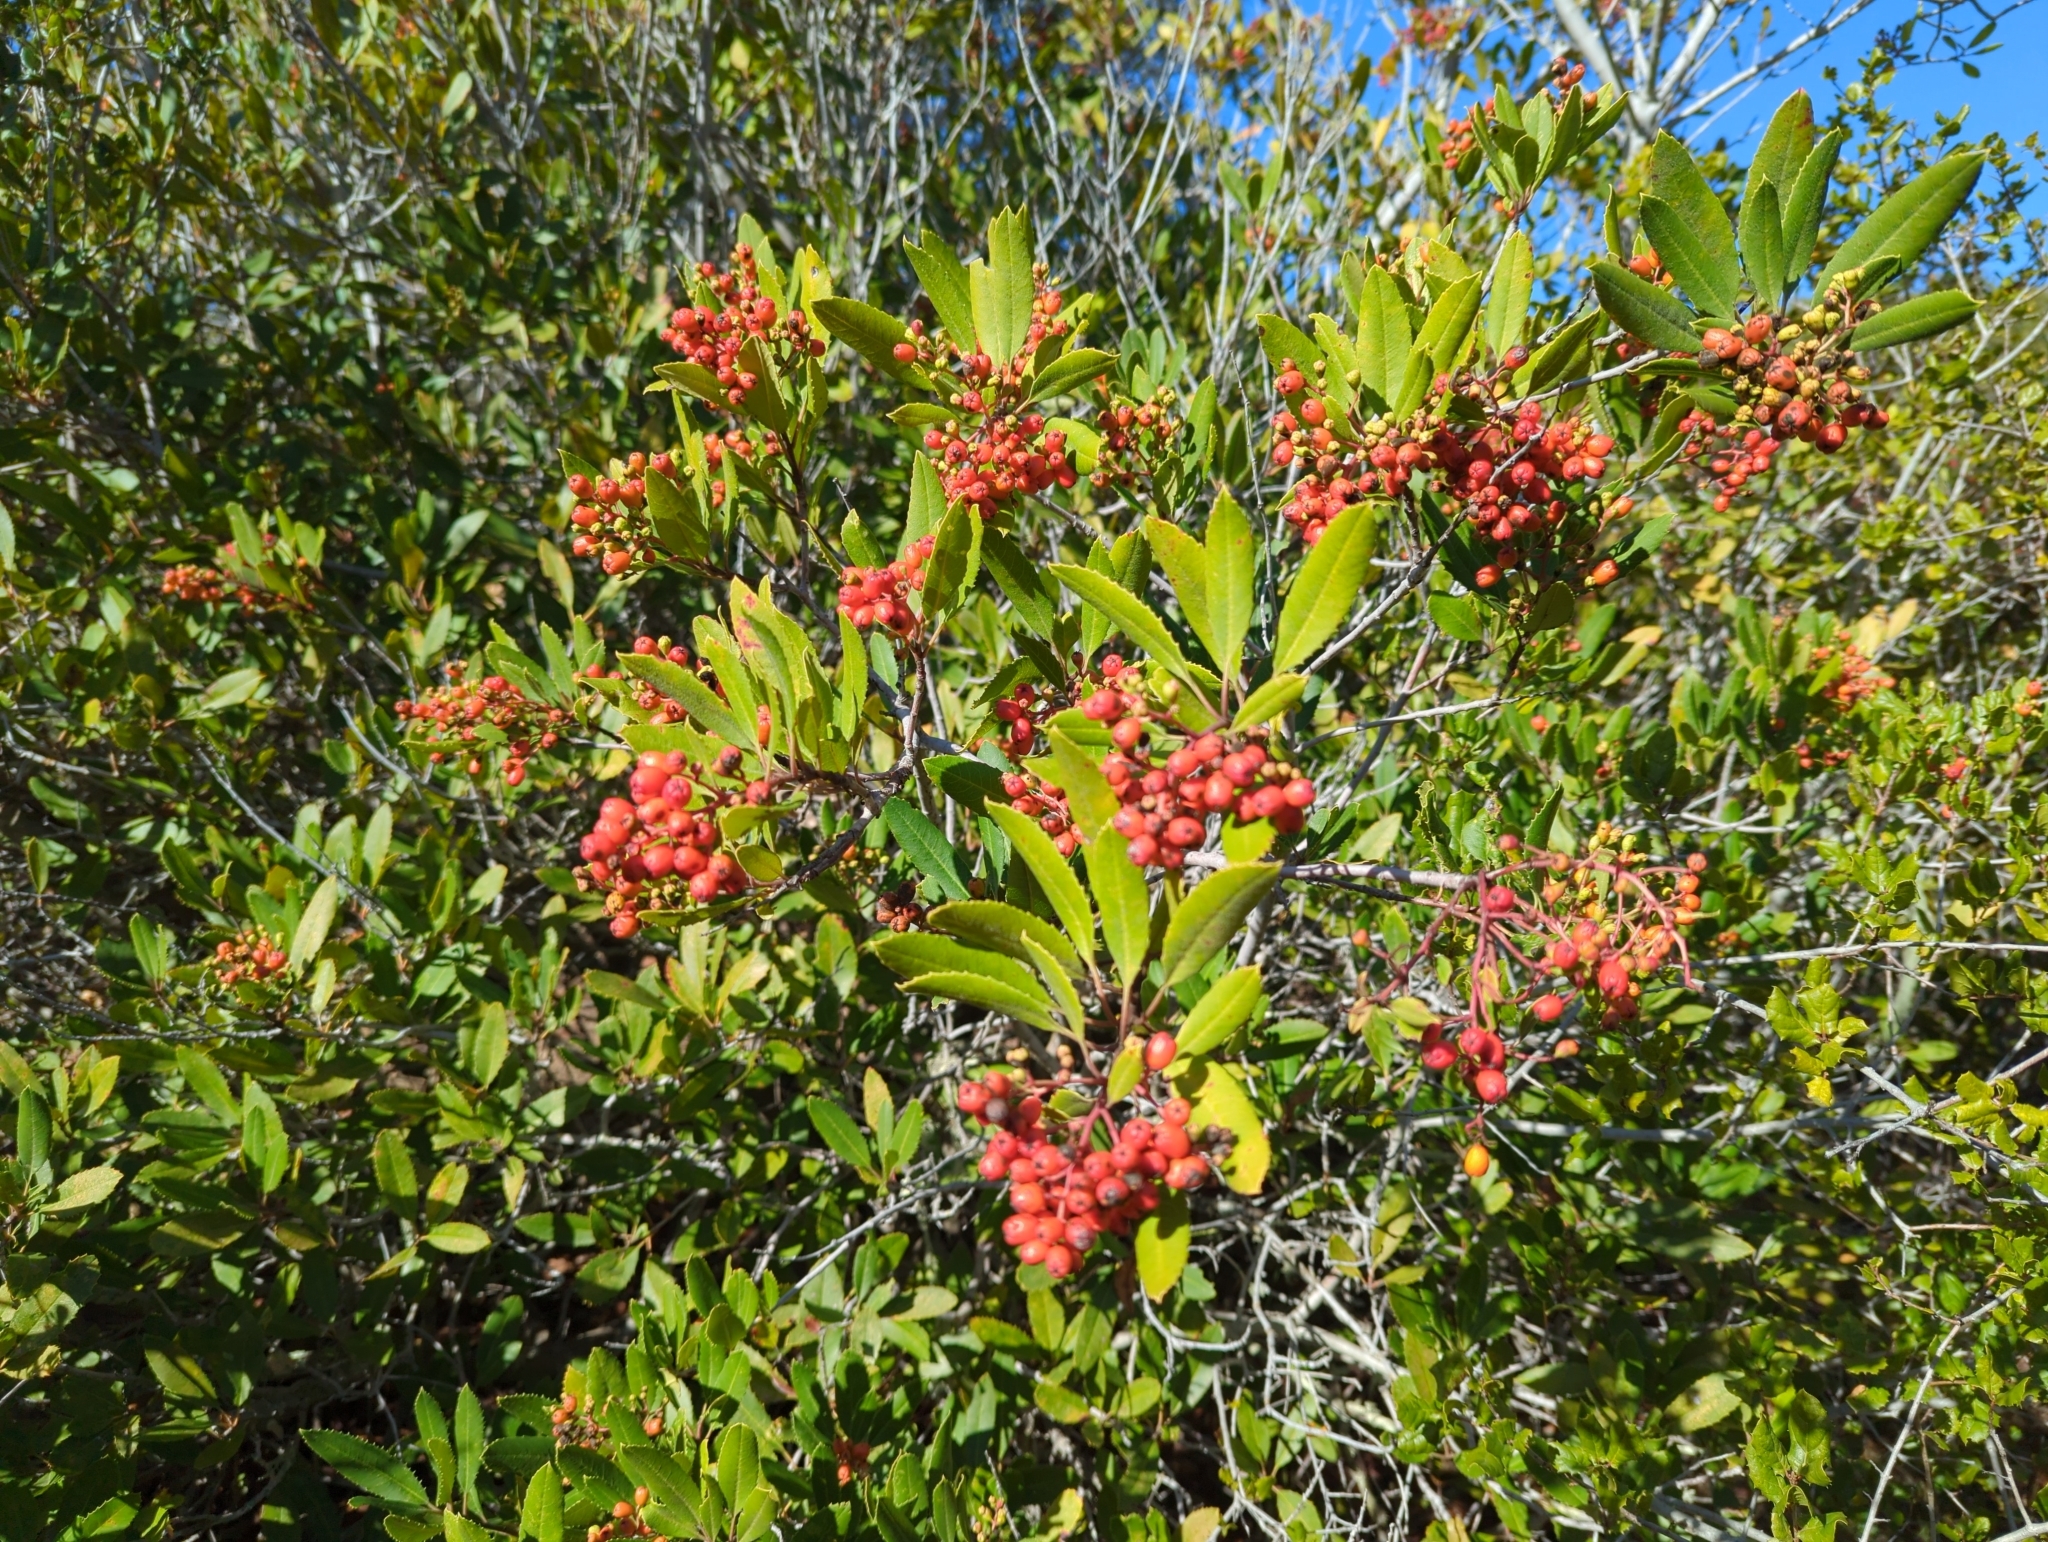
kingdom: Plantae
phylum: Tracheophyta
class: Magnoliopsida
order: Rosales
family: Rosaceae
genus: Heteromeles
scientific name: Heteromeles arbutifolia
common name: California-holly
